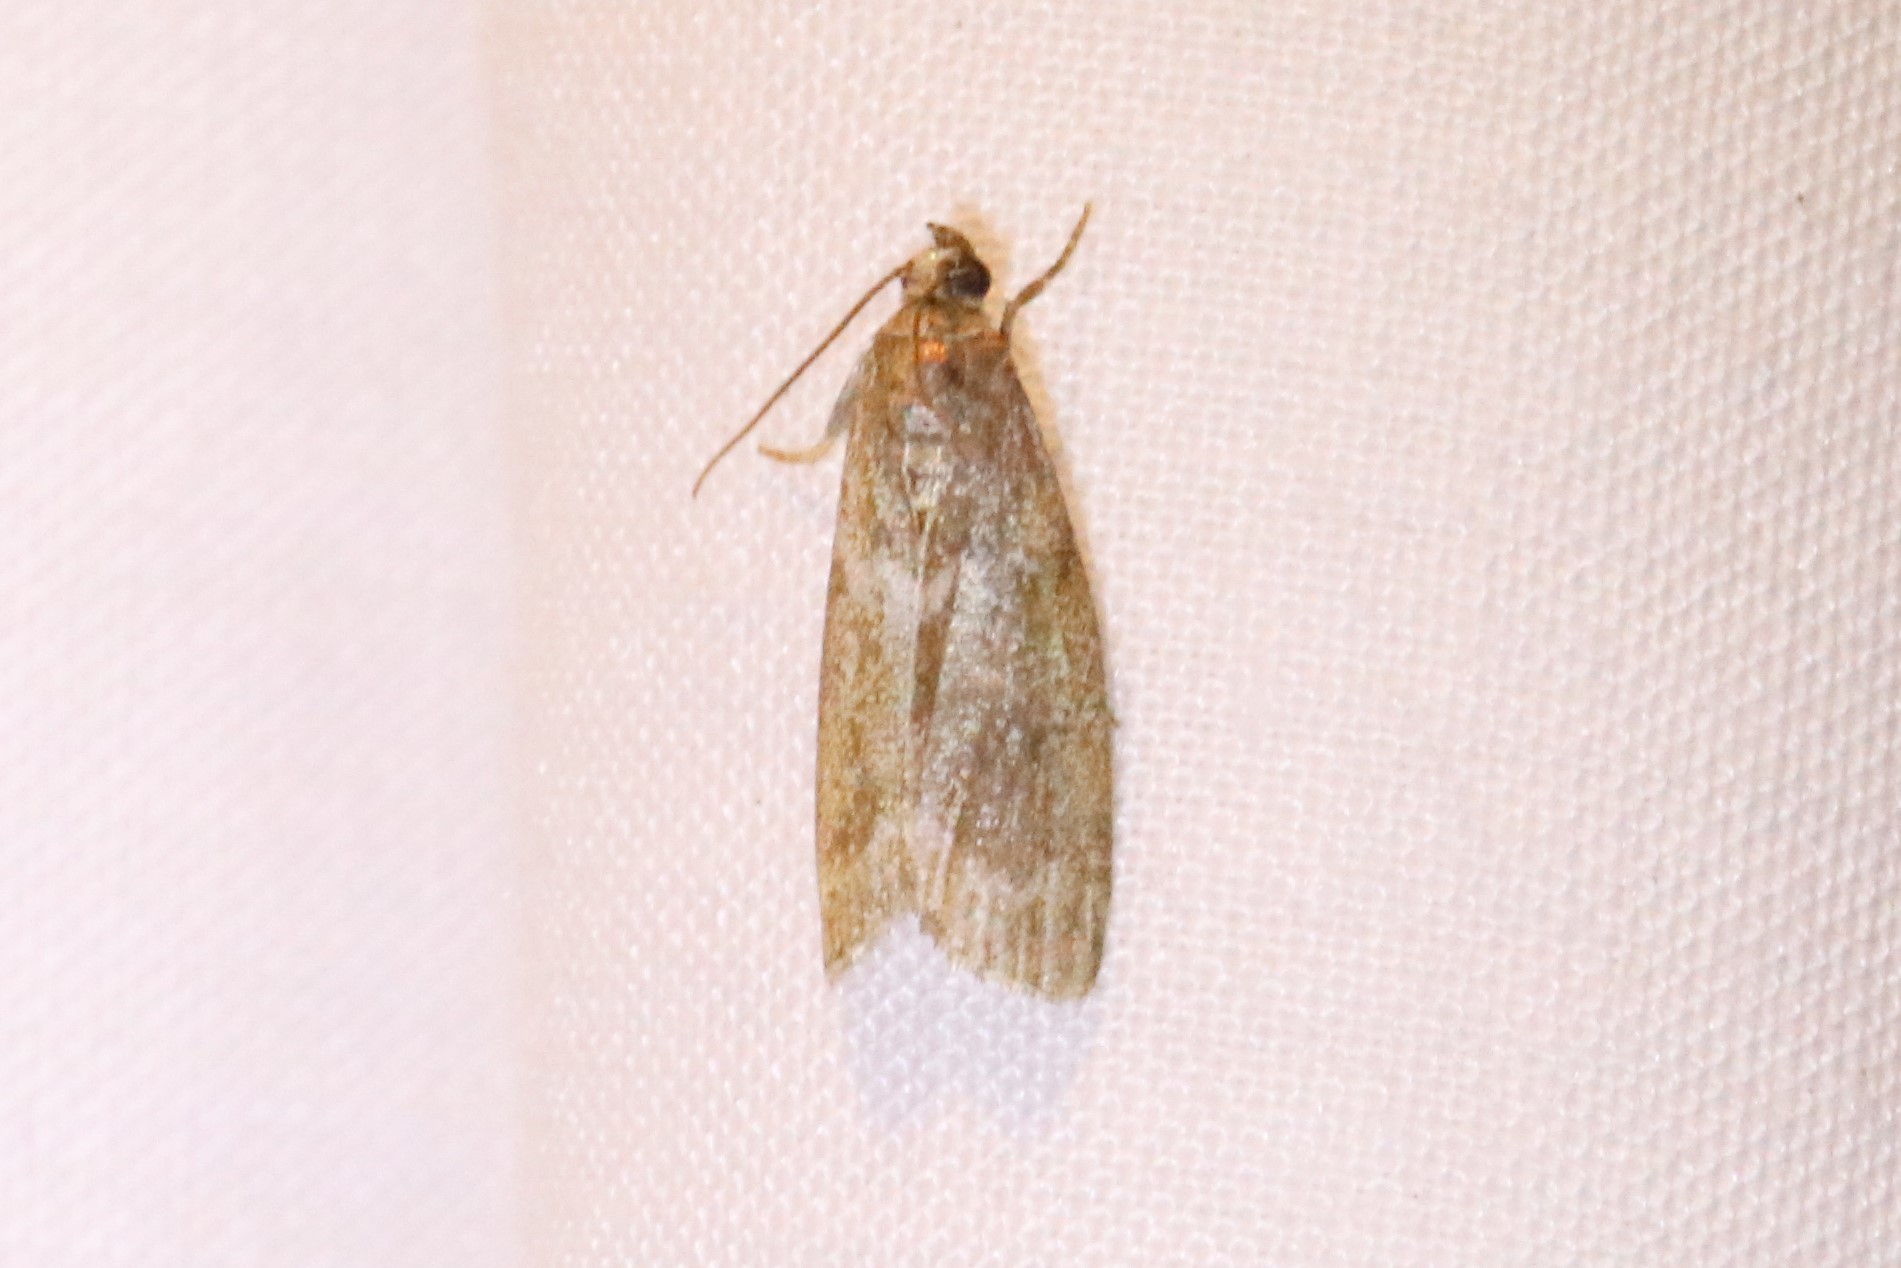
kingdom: Animalia
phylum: Arthropoda
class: Insecta
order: Lepidoptera
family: Crambidae
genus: Scoparia
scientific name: Scoparia basalis
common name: Many-spotted scoparia moth
